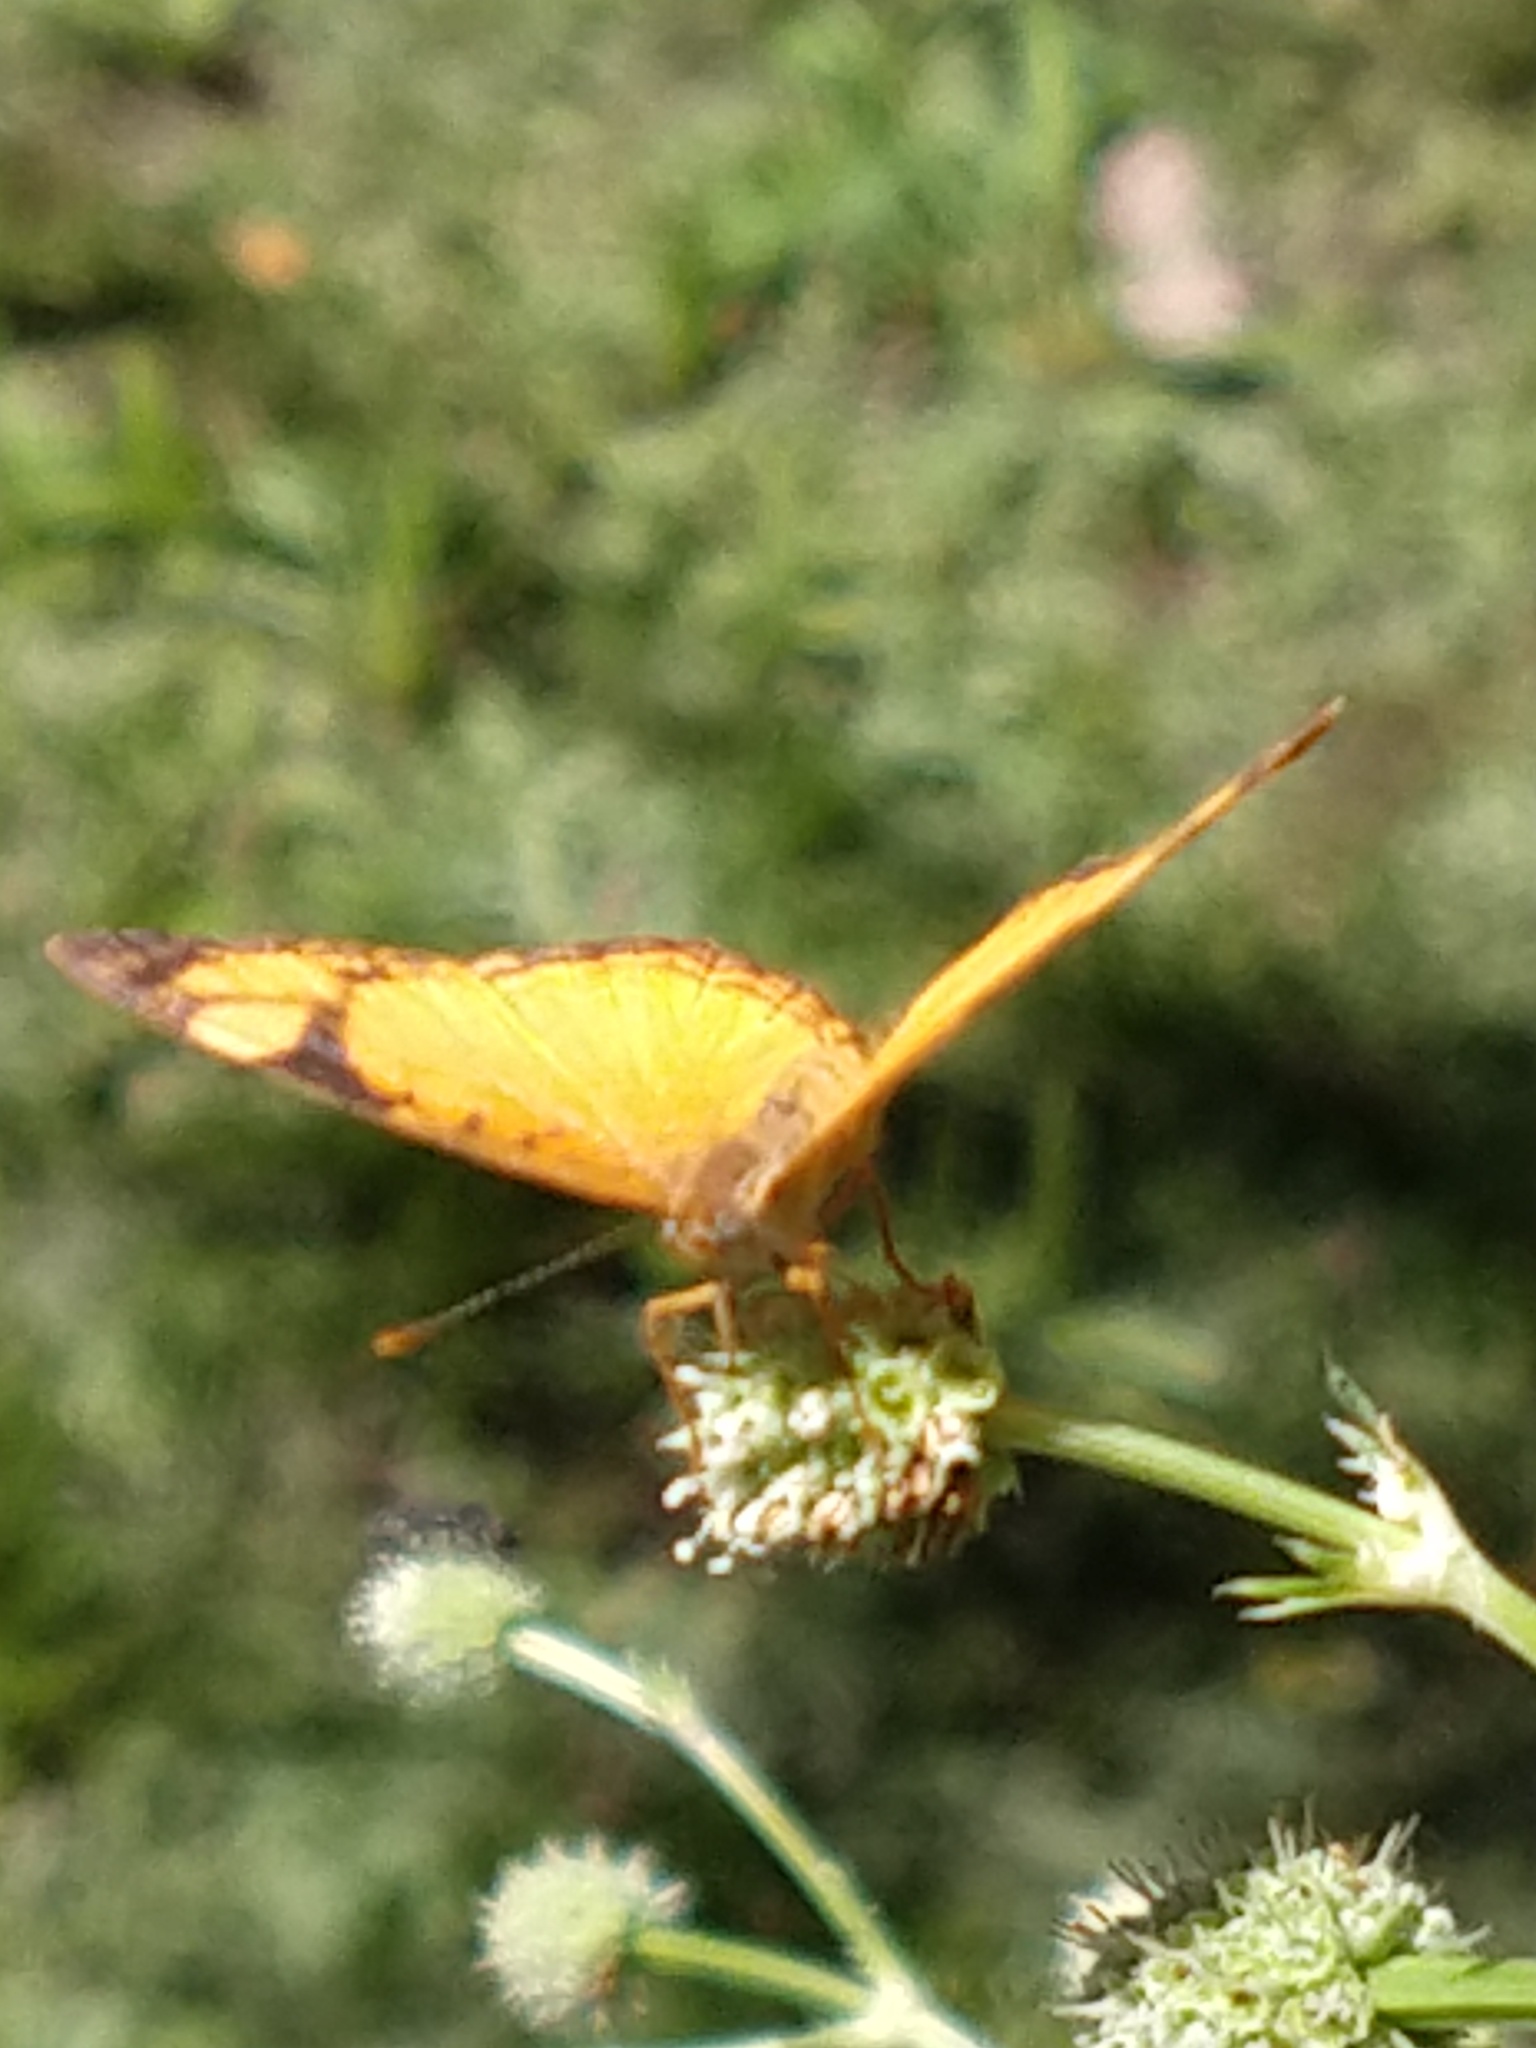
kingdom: Animalia
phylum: Arthropoda
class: Insecta
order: Lepidoptera
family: Nymphalidae
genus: Tegosa
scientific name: Tegosa claudina
